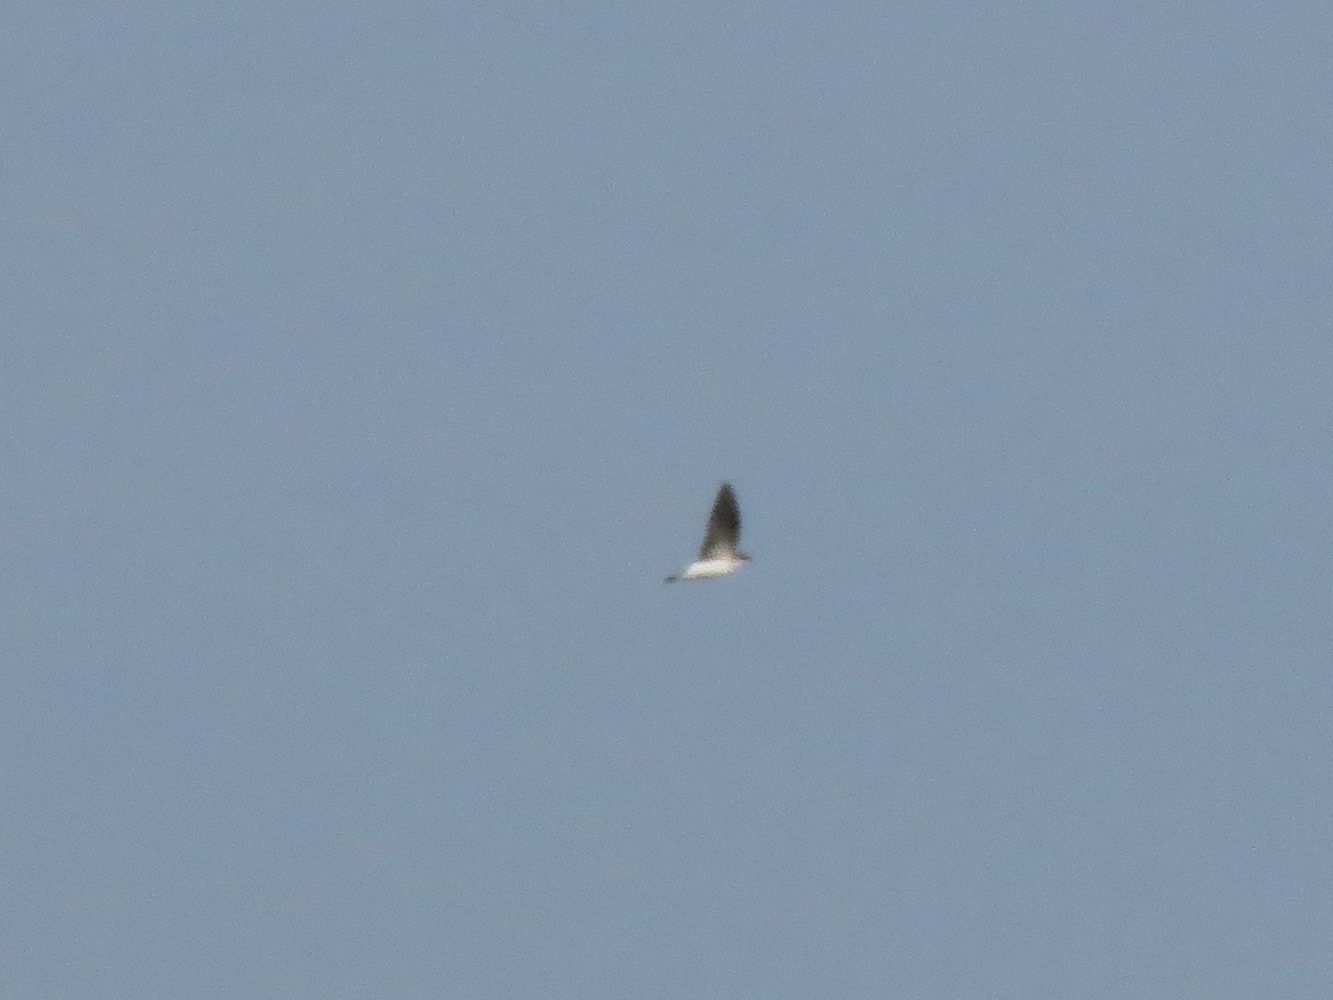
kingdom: Animalia
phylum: Chordata
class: Aves
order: Passeriformes
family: Hirundinidae
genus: Tachycineta
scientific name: Tachycineta leucorrhoa
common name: White-rumped swallow
